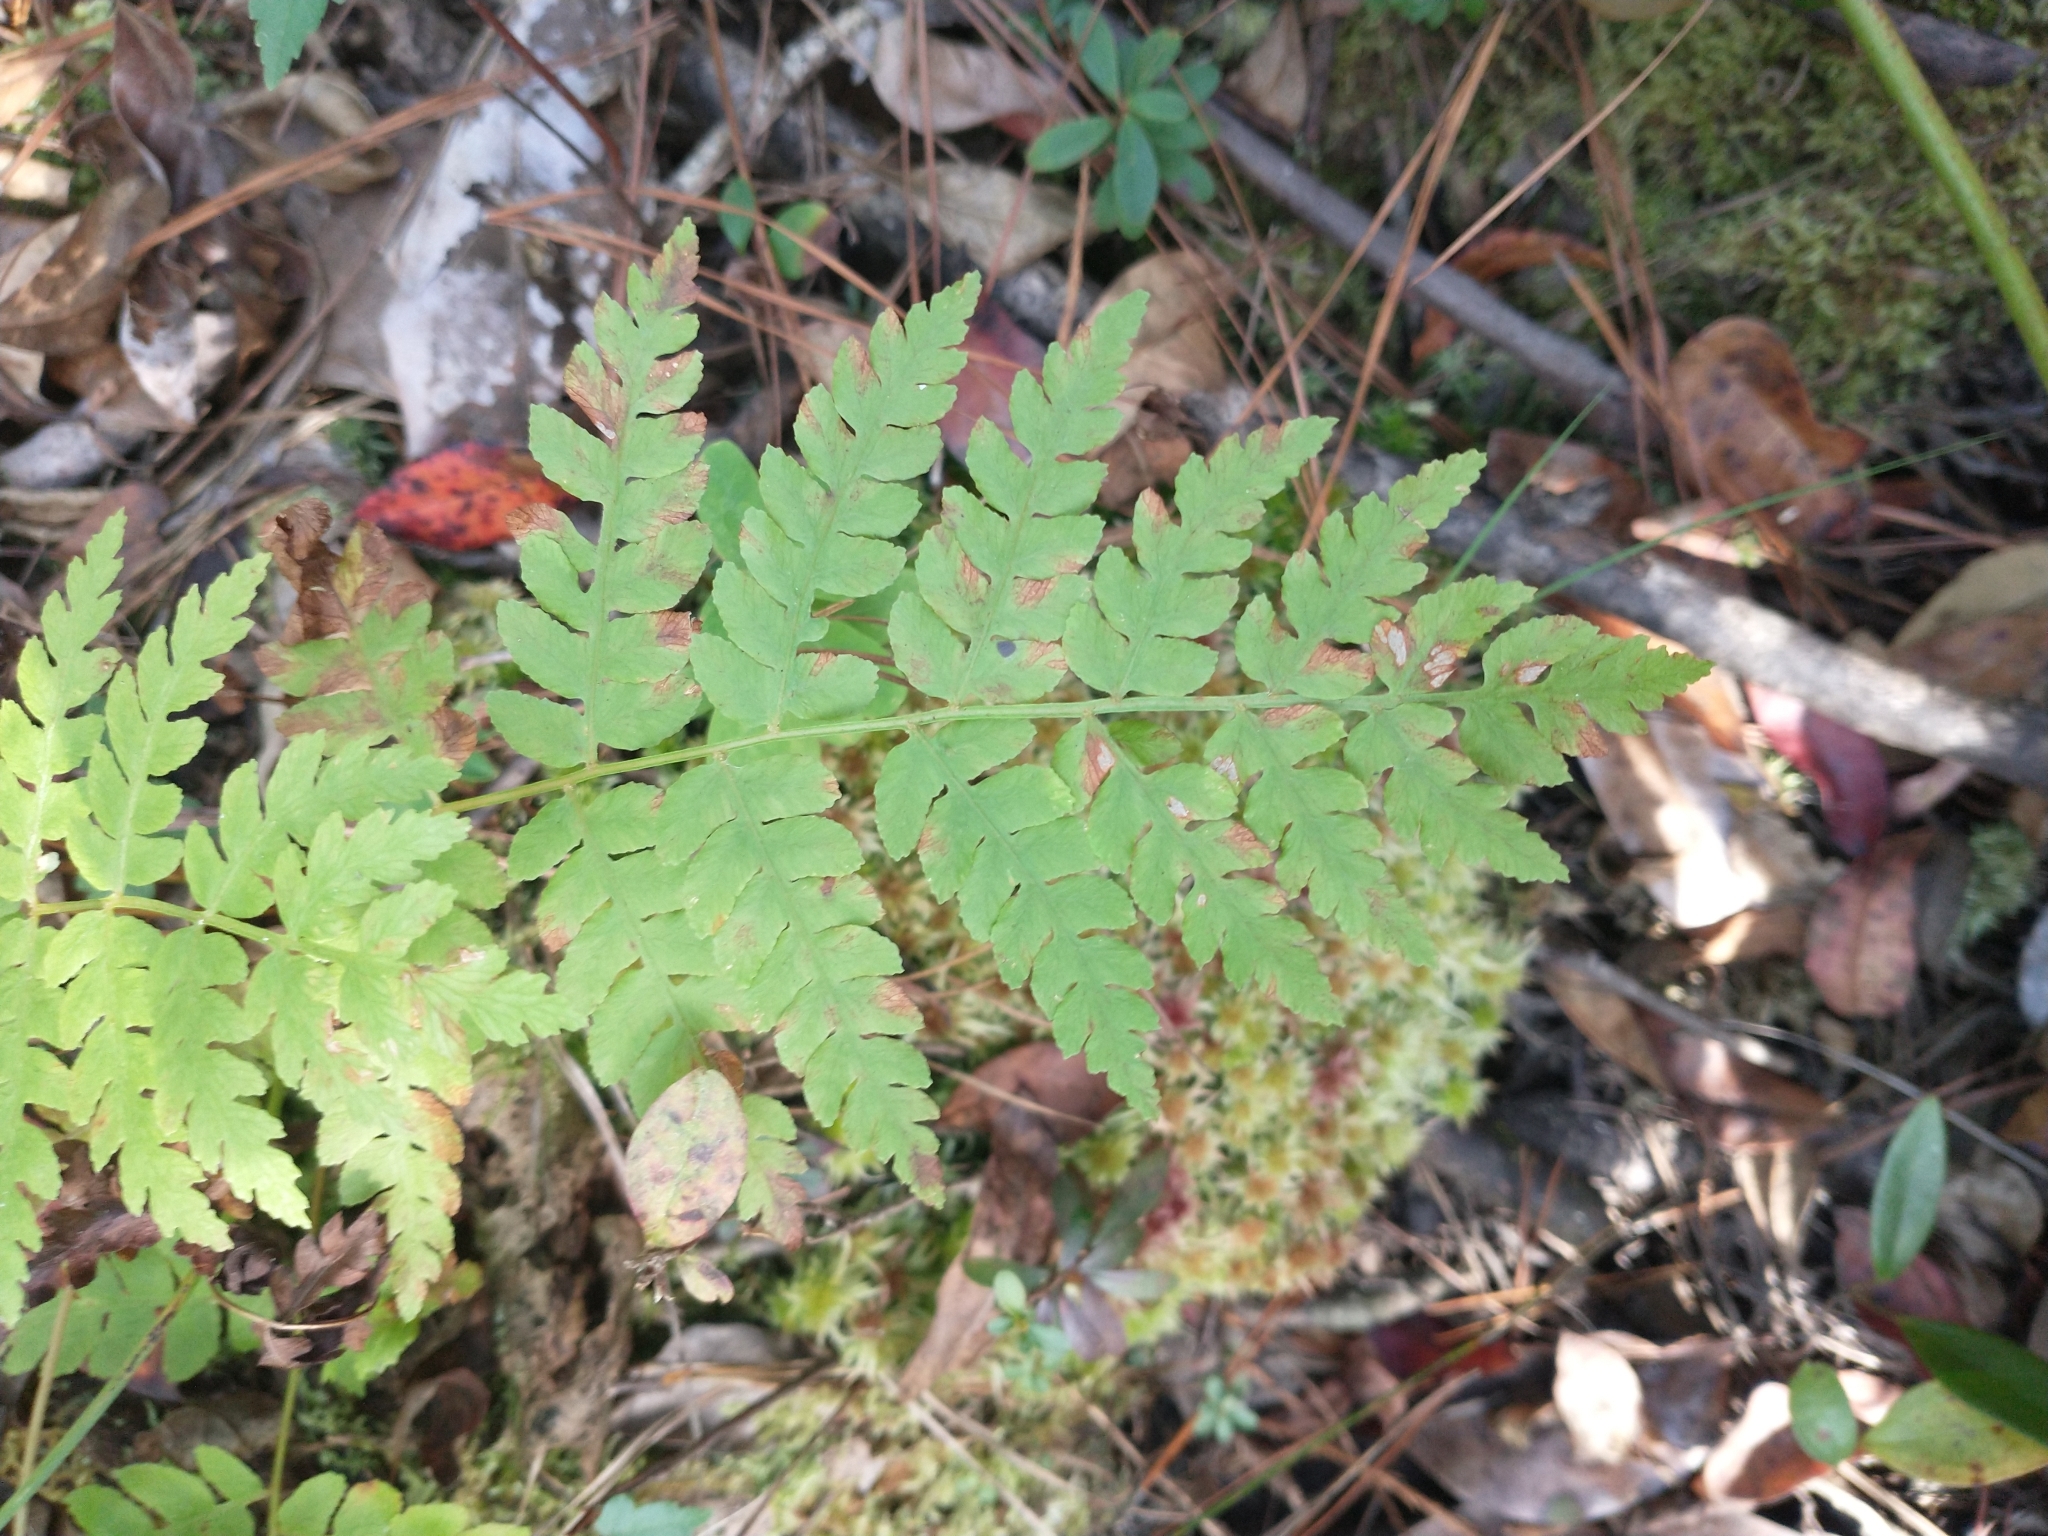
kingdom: Plantae
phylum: Tracheophyta
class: Polypodiopsida
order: Osmundales
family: Osmundaceae
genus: Osmundastrum
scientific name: Osmundastrum cinnamomeum
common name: Cinnamon fern
